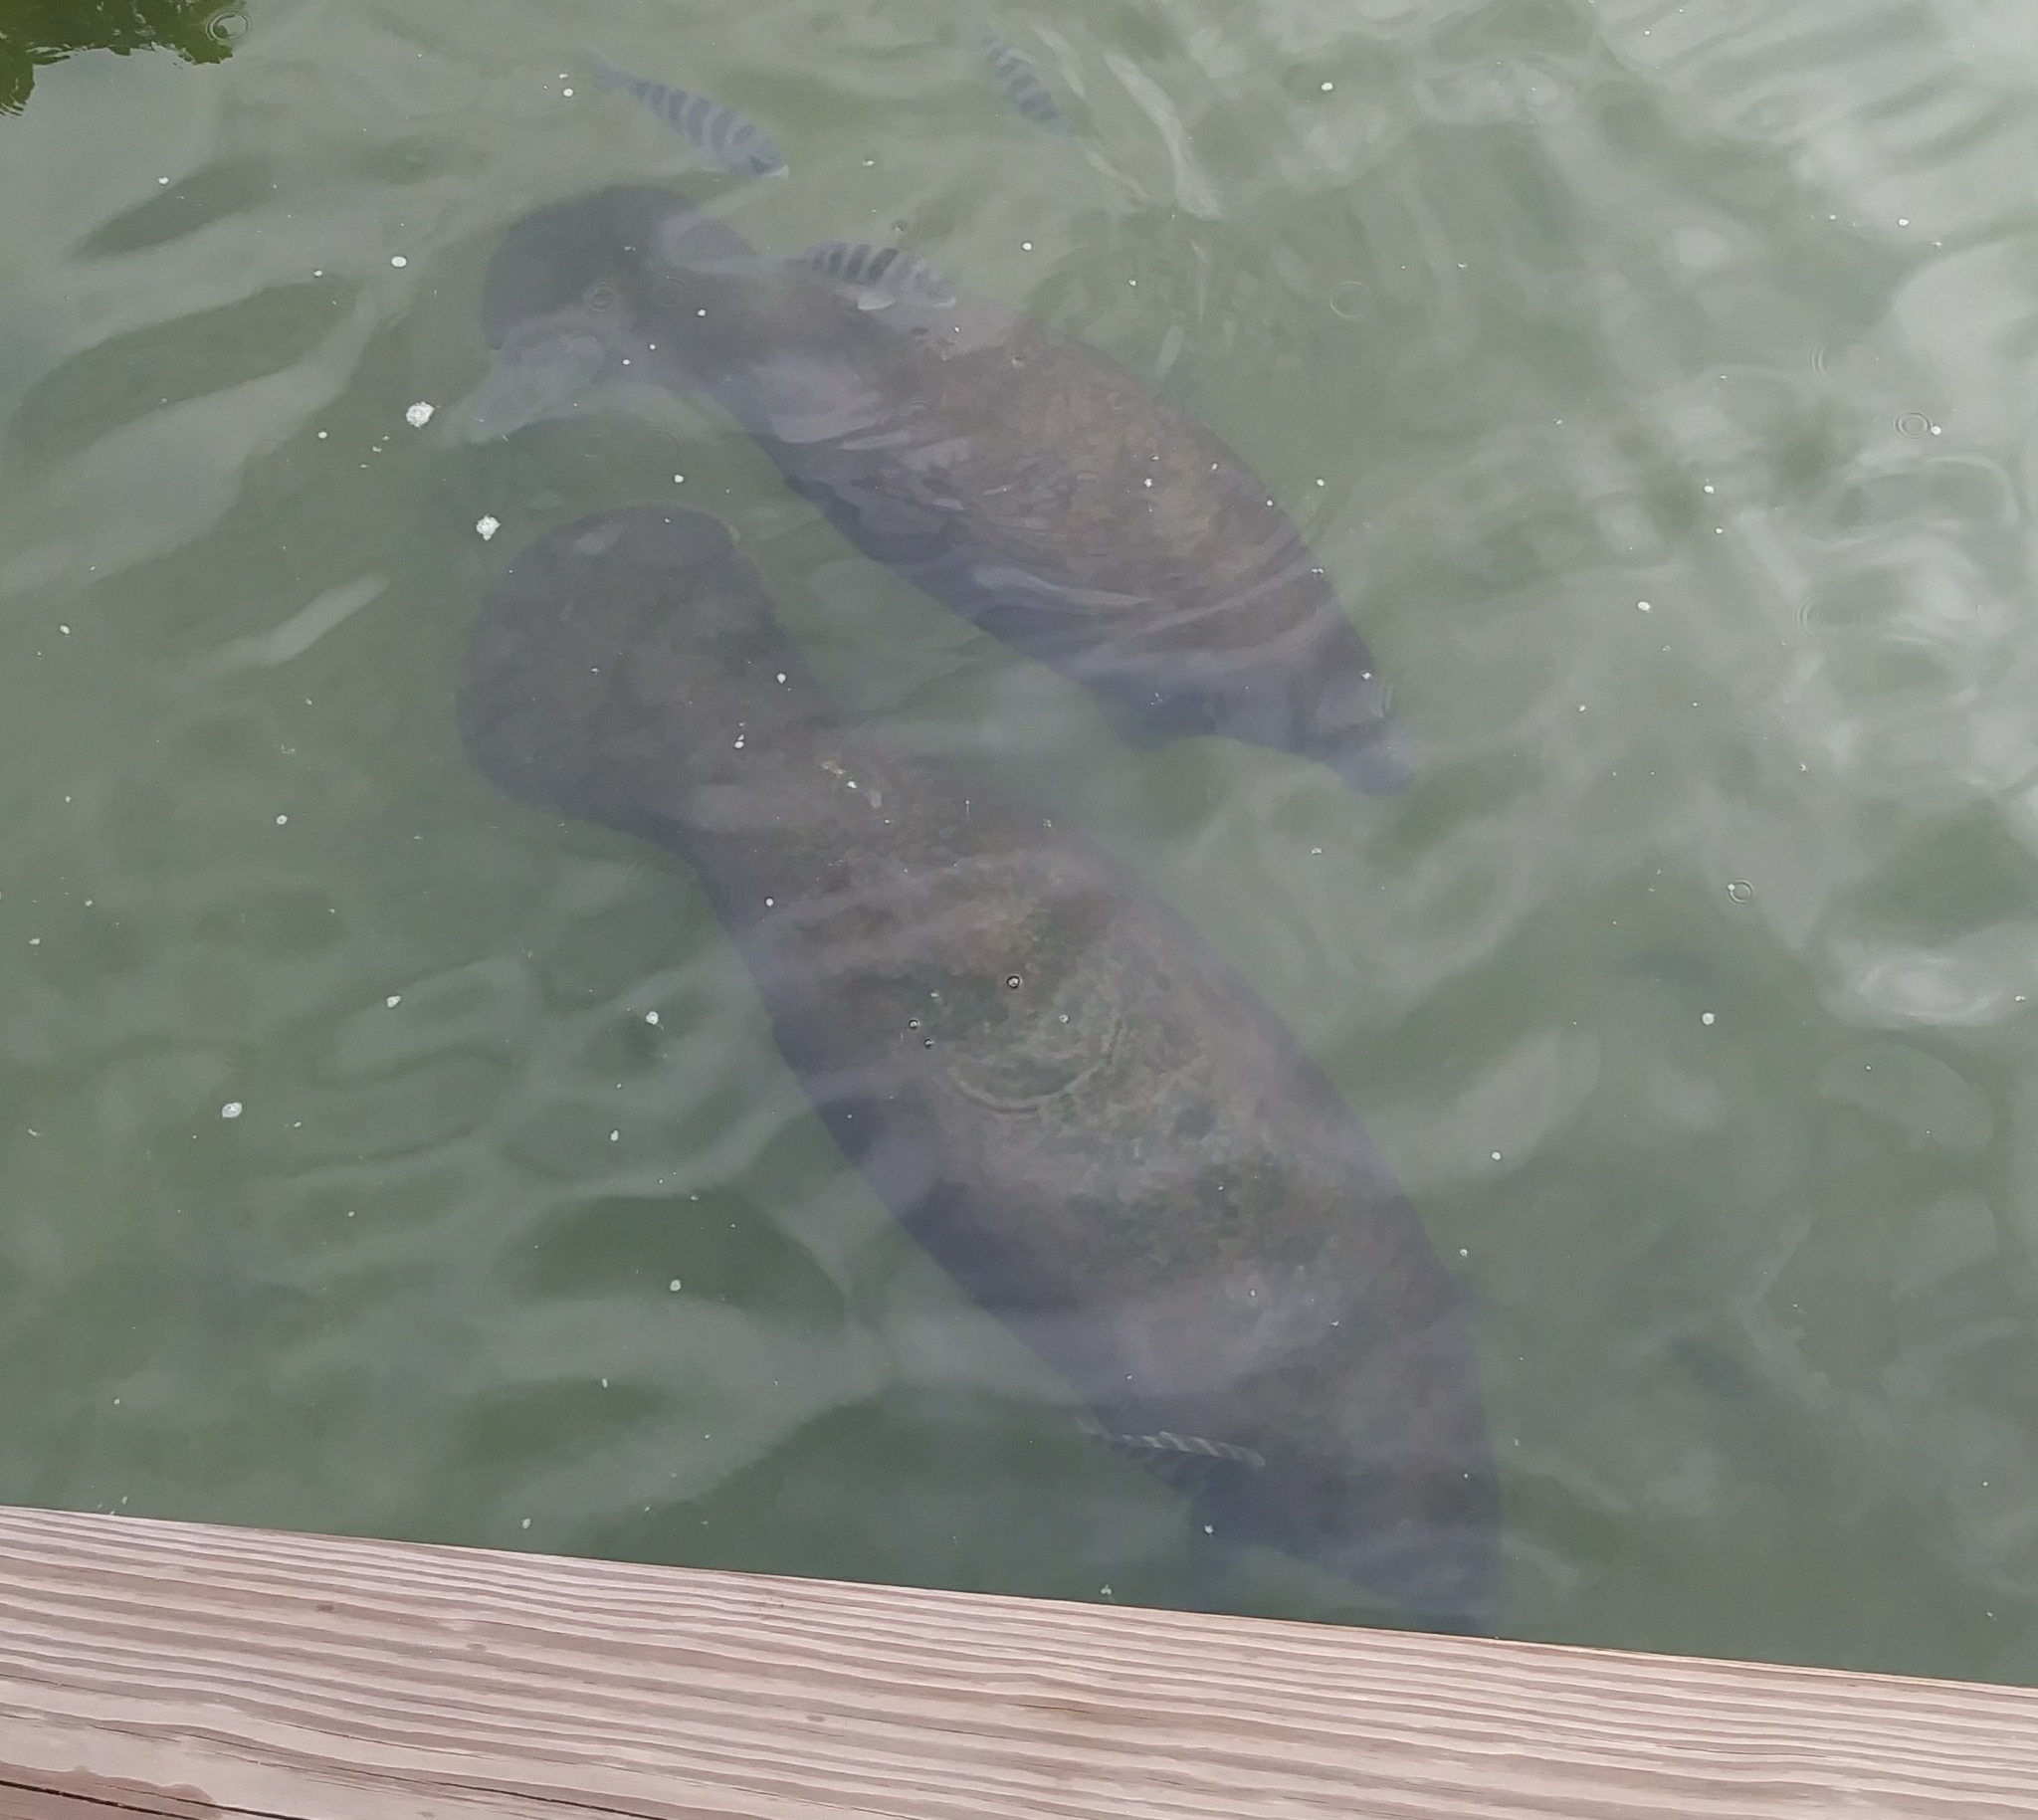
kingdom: Animalia
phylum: Chordata
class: Mammalia
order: Sirenia
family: Trichechidae
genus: Trichechus
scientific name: Trichechus manatus
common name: West indian manatee
